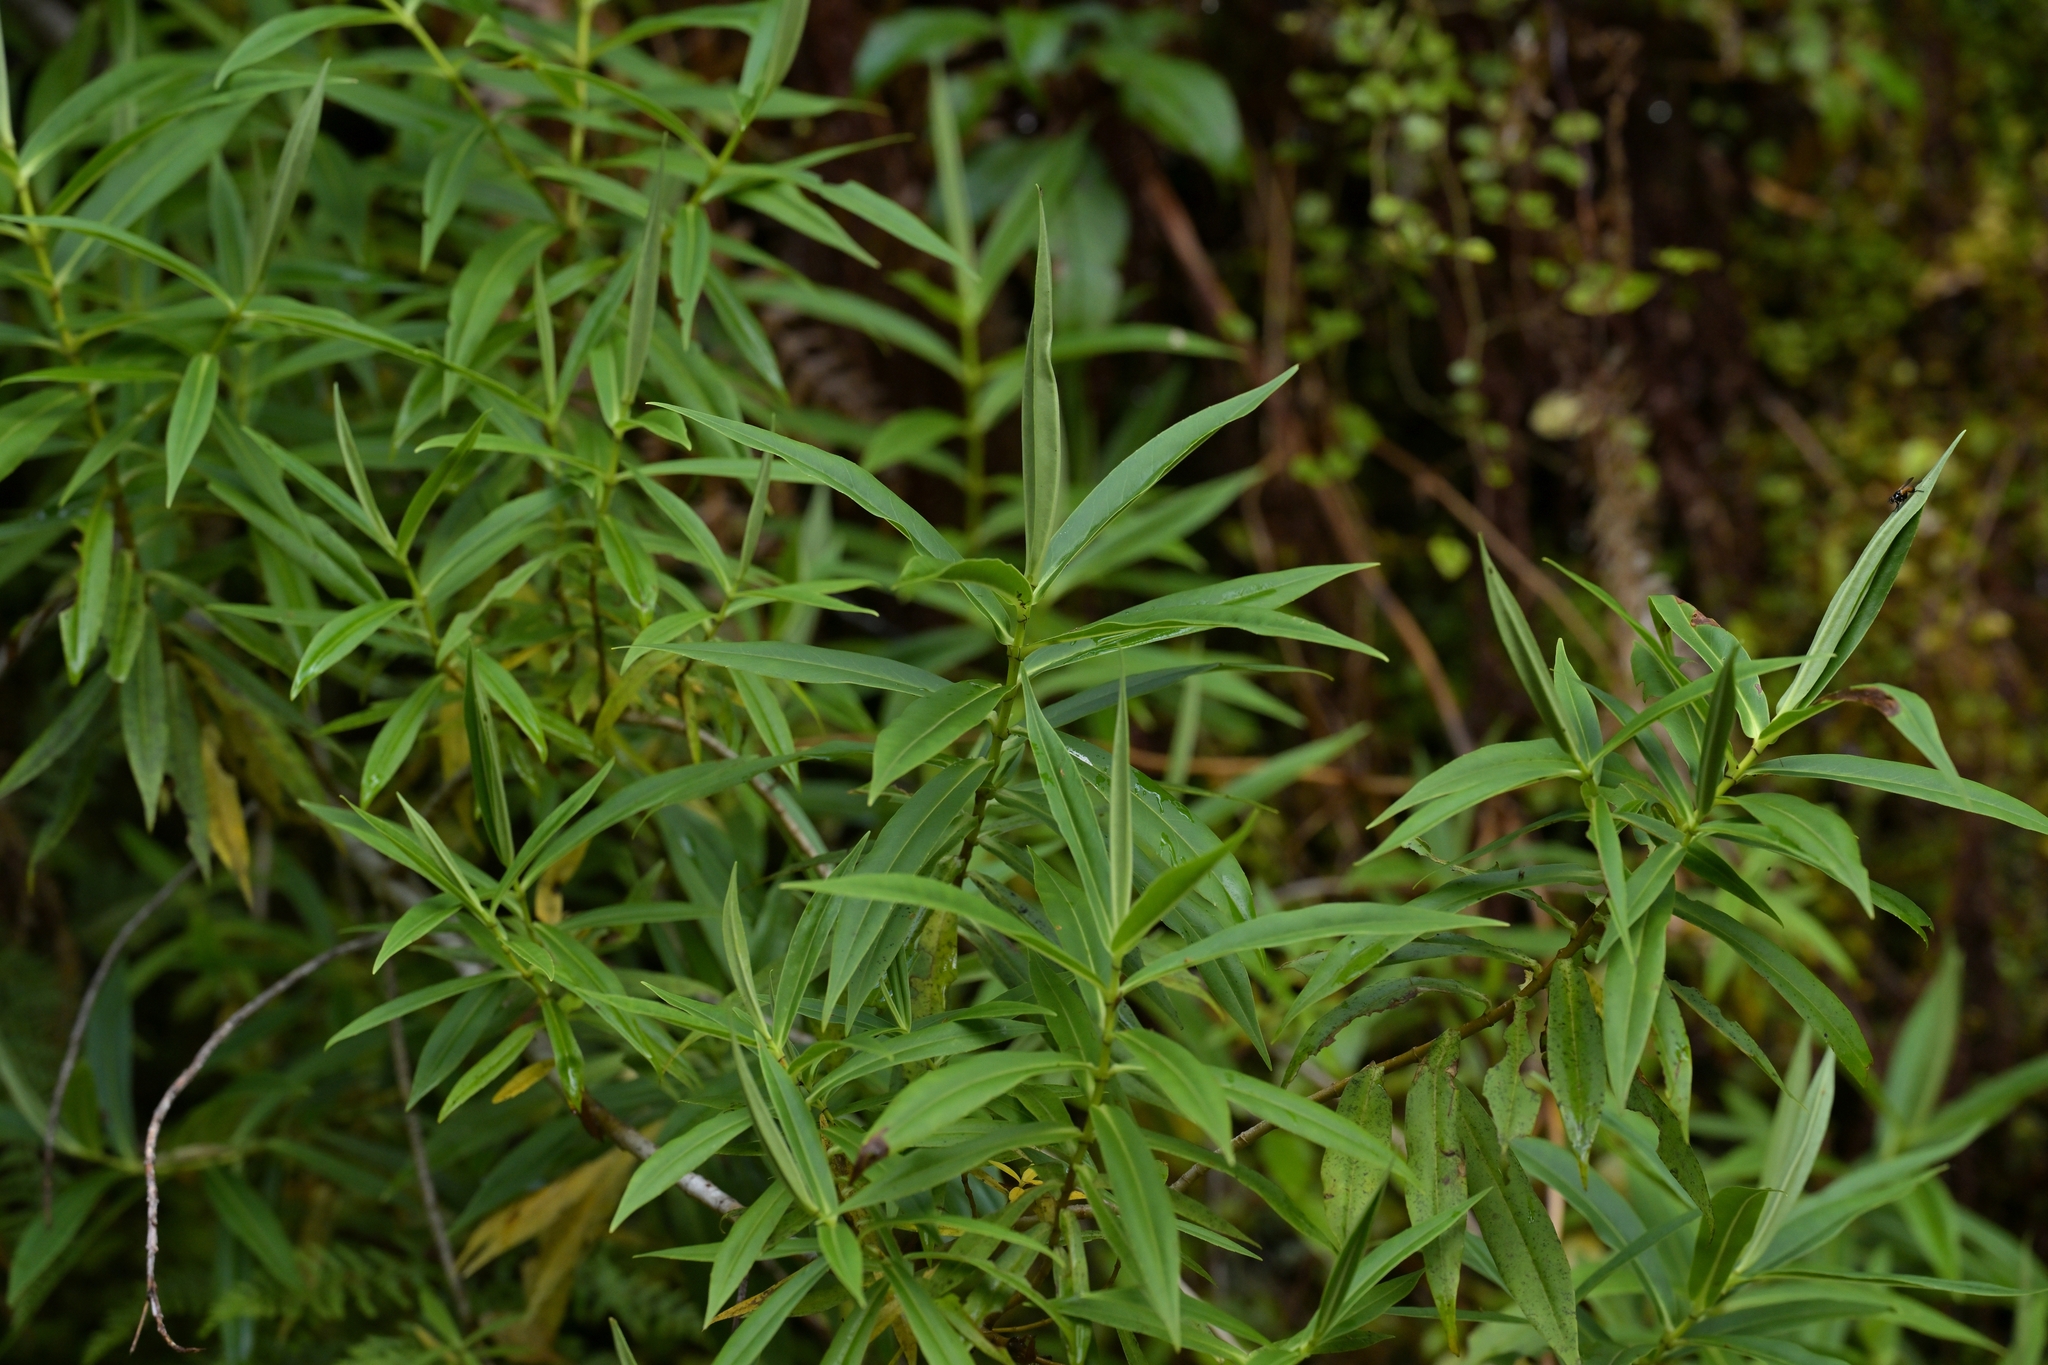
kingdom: Plantae
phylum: Tracheophyta
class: Magnoliopsida
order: Lamiales
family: Plantaginaceae
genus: Veronica
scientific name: Veronica salicifolia
